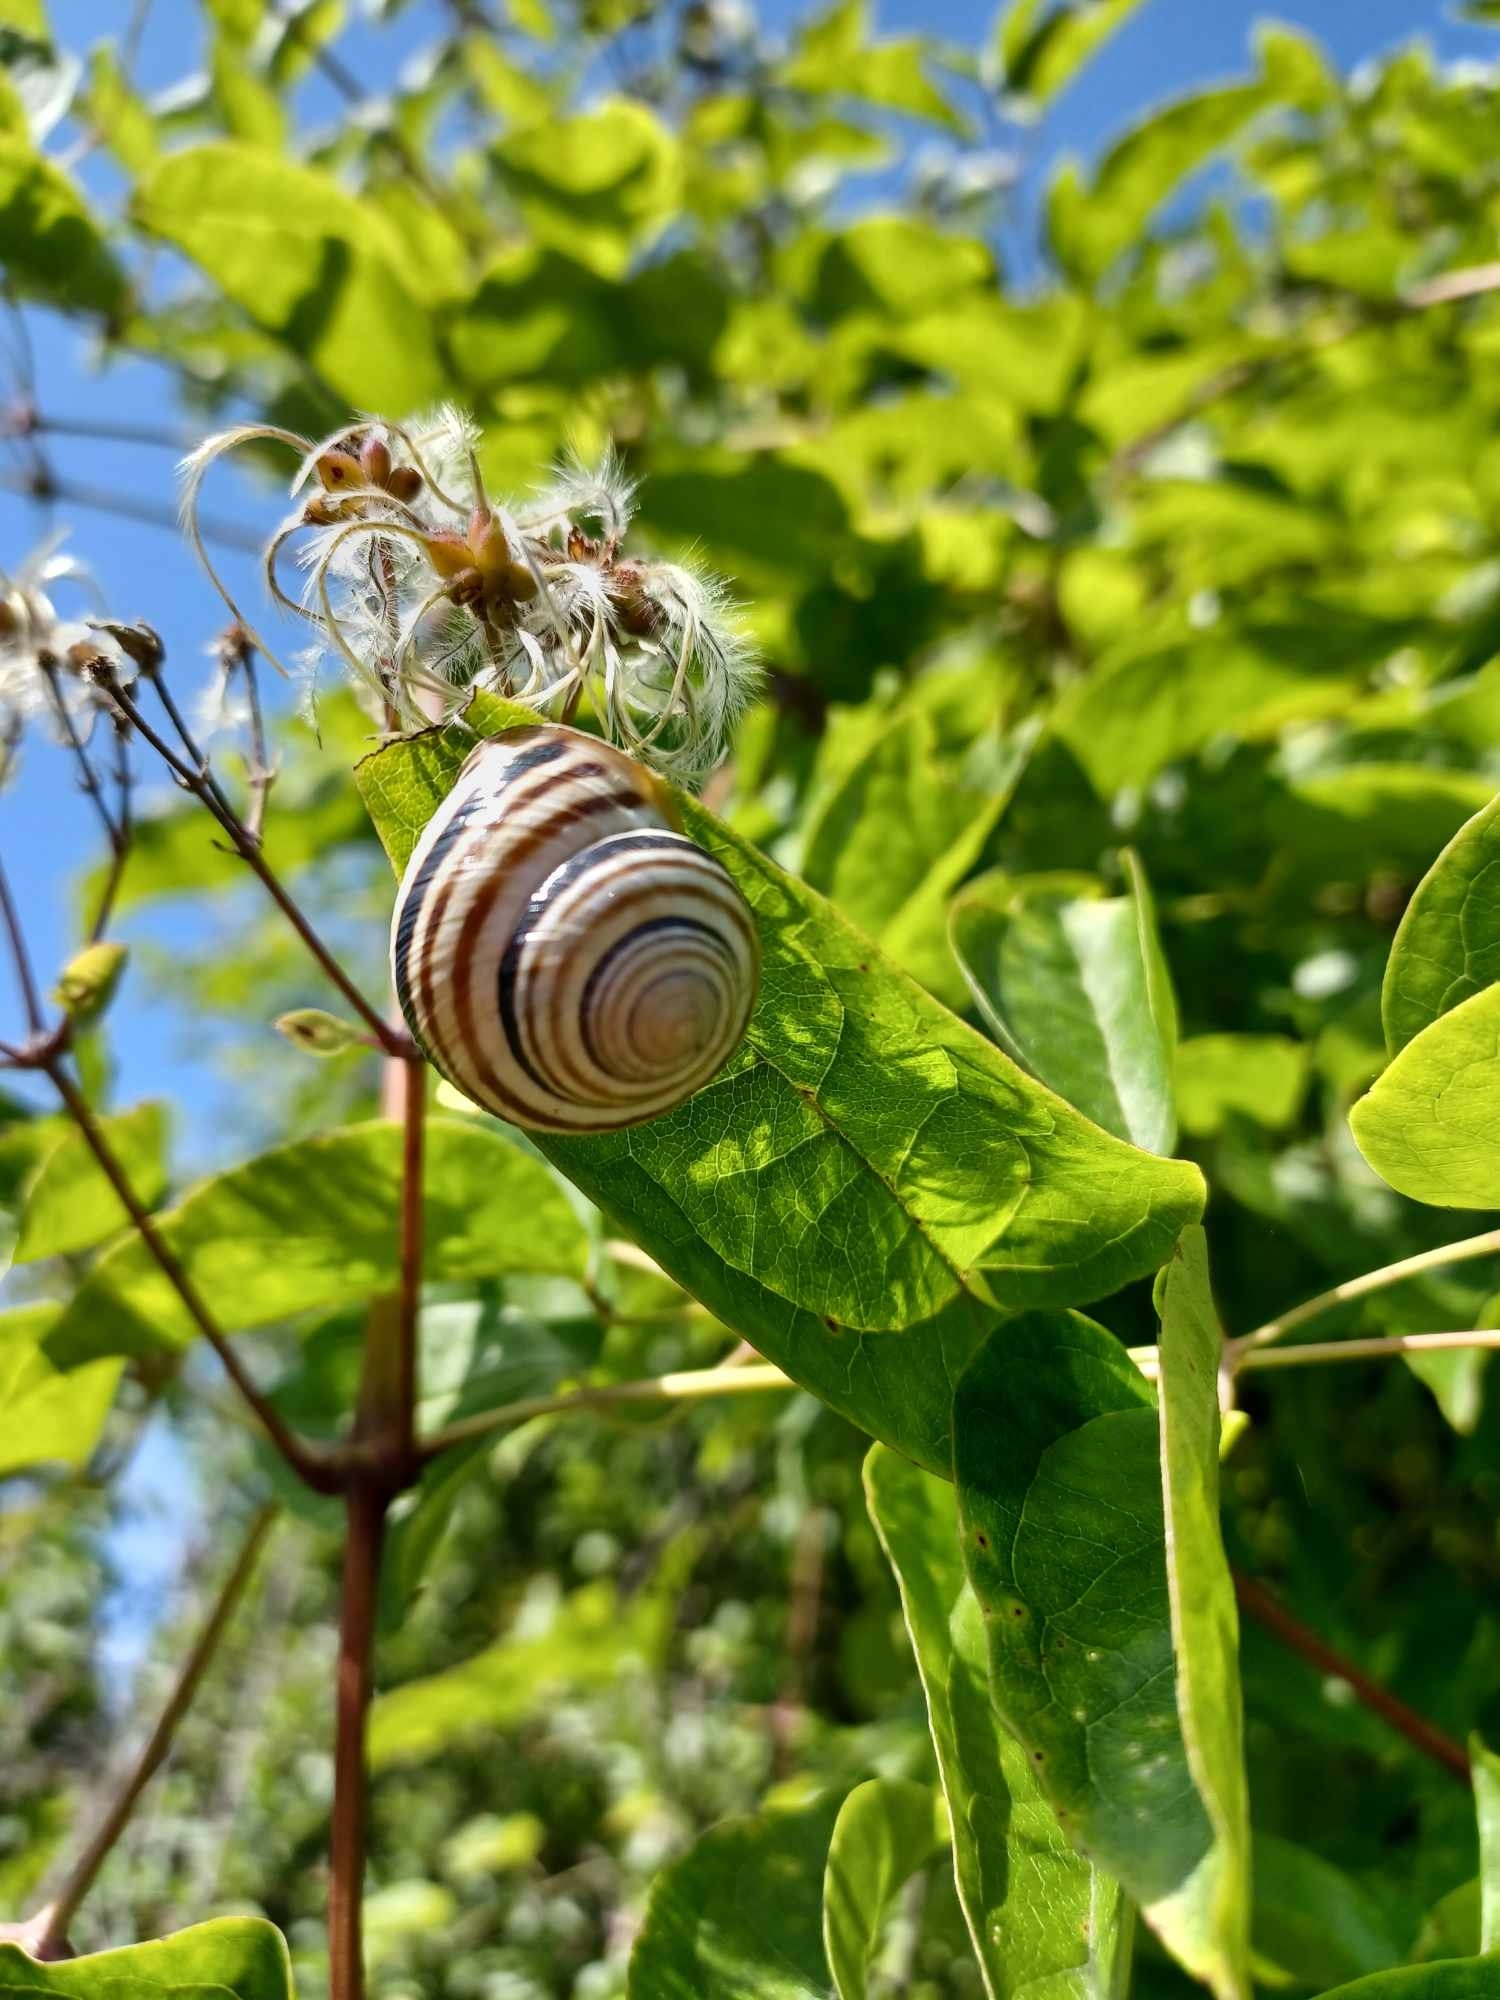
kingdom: Animalia
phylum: Mollusca
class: Gastropoda
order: Stylommatophora
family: Helicidae
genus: Caucasotachea
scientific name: Caucasotachea vindobonensis
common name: European helicid land snail
